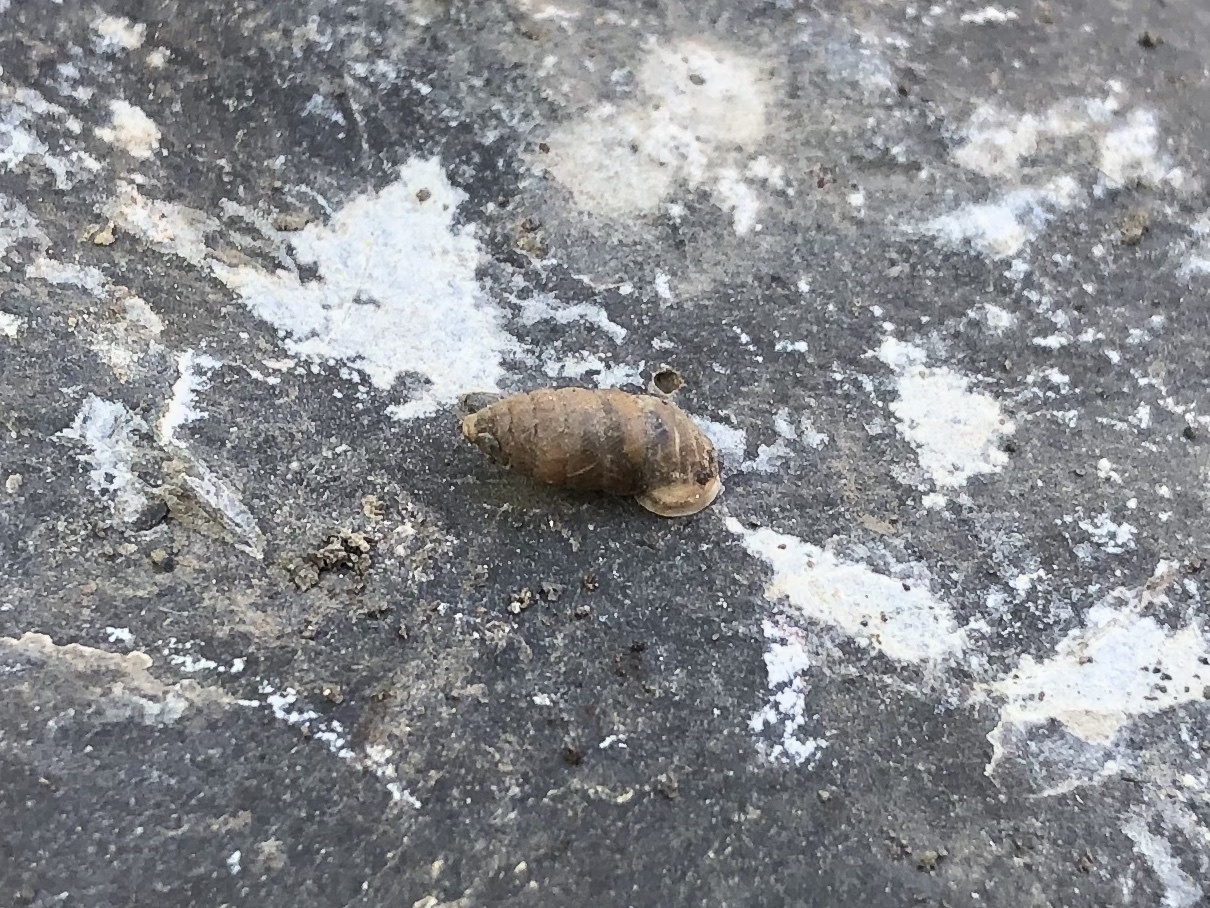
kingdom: Animalia
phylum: Mollusca
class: Gastropoda
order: Stylommatophora
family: Chondrinidae
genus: Granaria
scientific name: Granaria frumentum
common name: An air-breathing land snail
